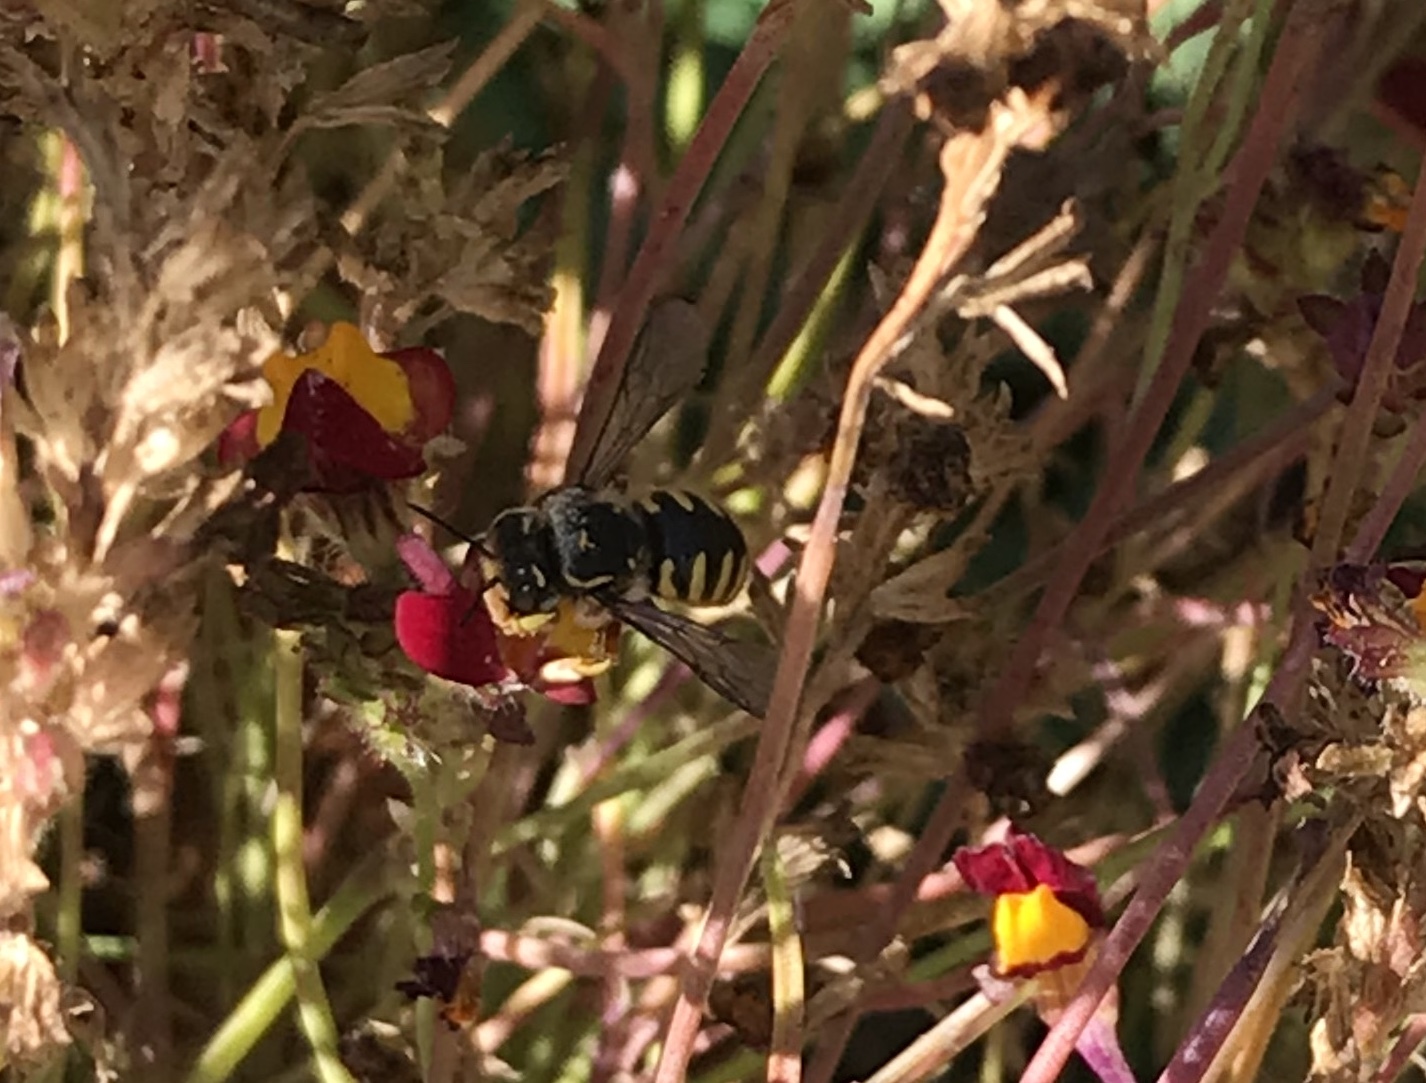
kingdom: Animalia
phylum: Arthropoda
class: Insecta
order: Hymenoptera
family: Megachilidae
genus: Anthidium
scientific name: Anthidium manicatum
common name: Wool carder bee
